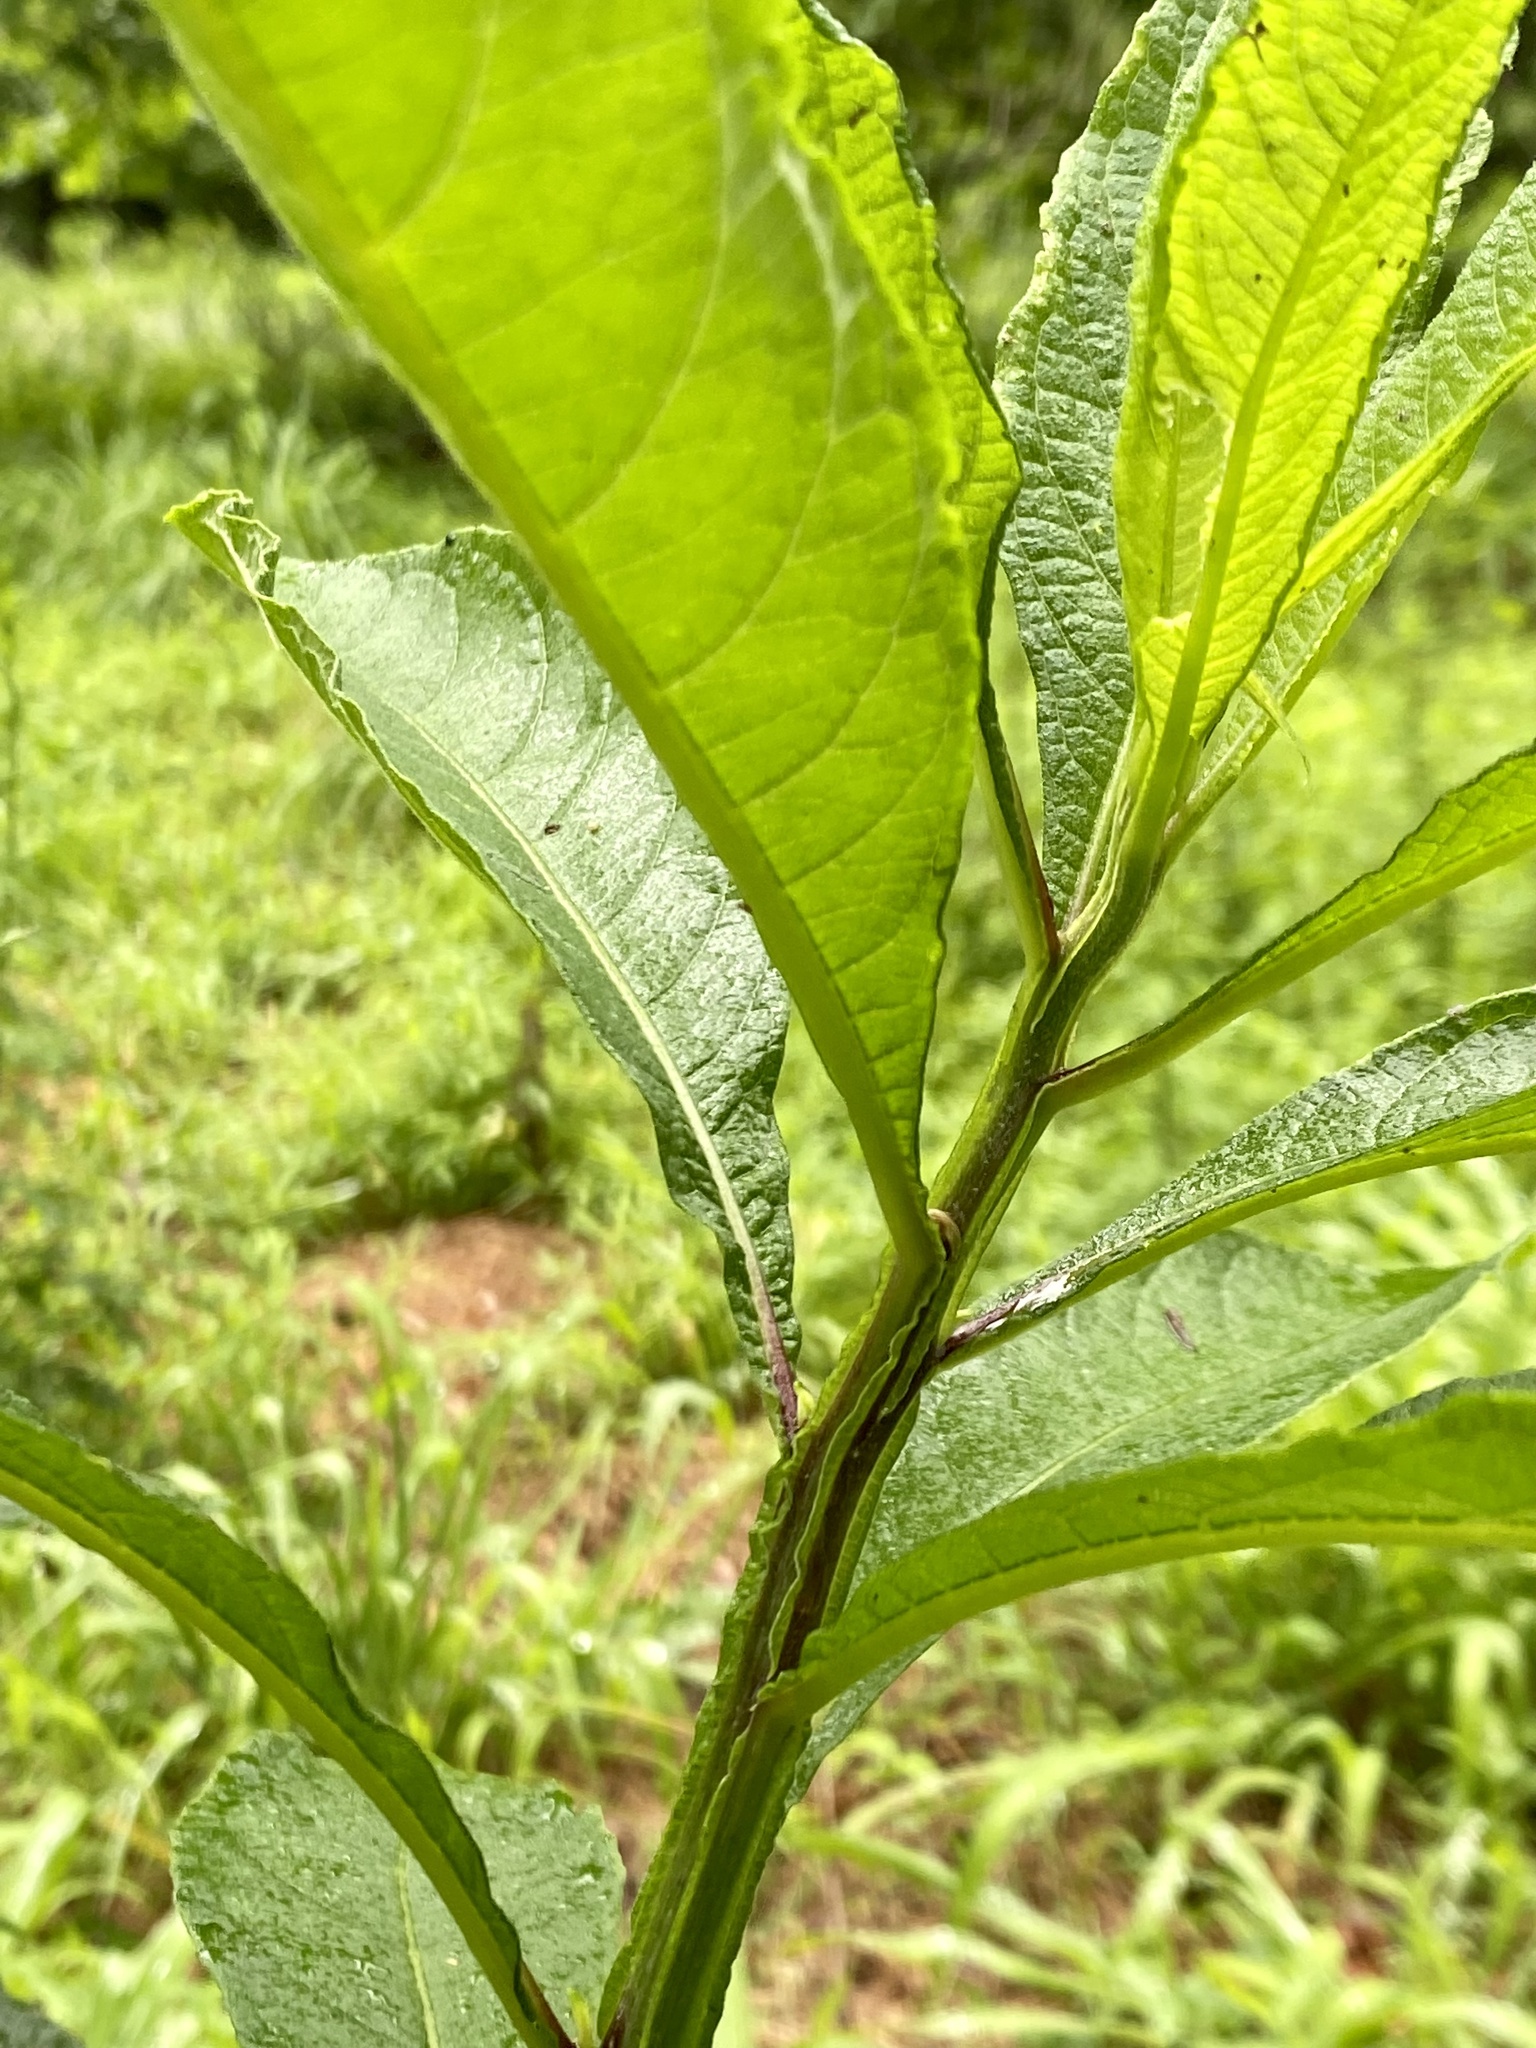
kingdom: Plantae
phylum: Tracheophyta
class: Magnoliopsida
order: Asterales
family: Asteraceae
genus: Verbesina
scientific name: Verbesina alternifolia
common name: Wingstem
